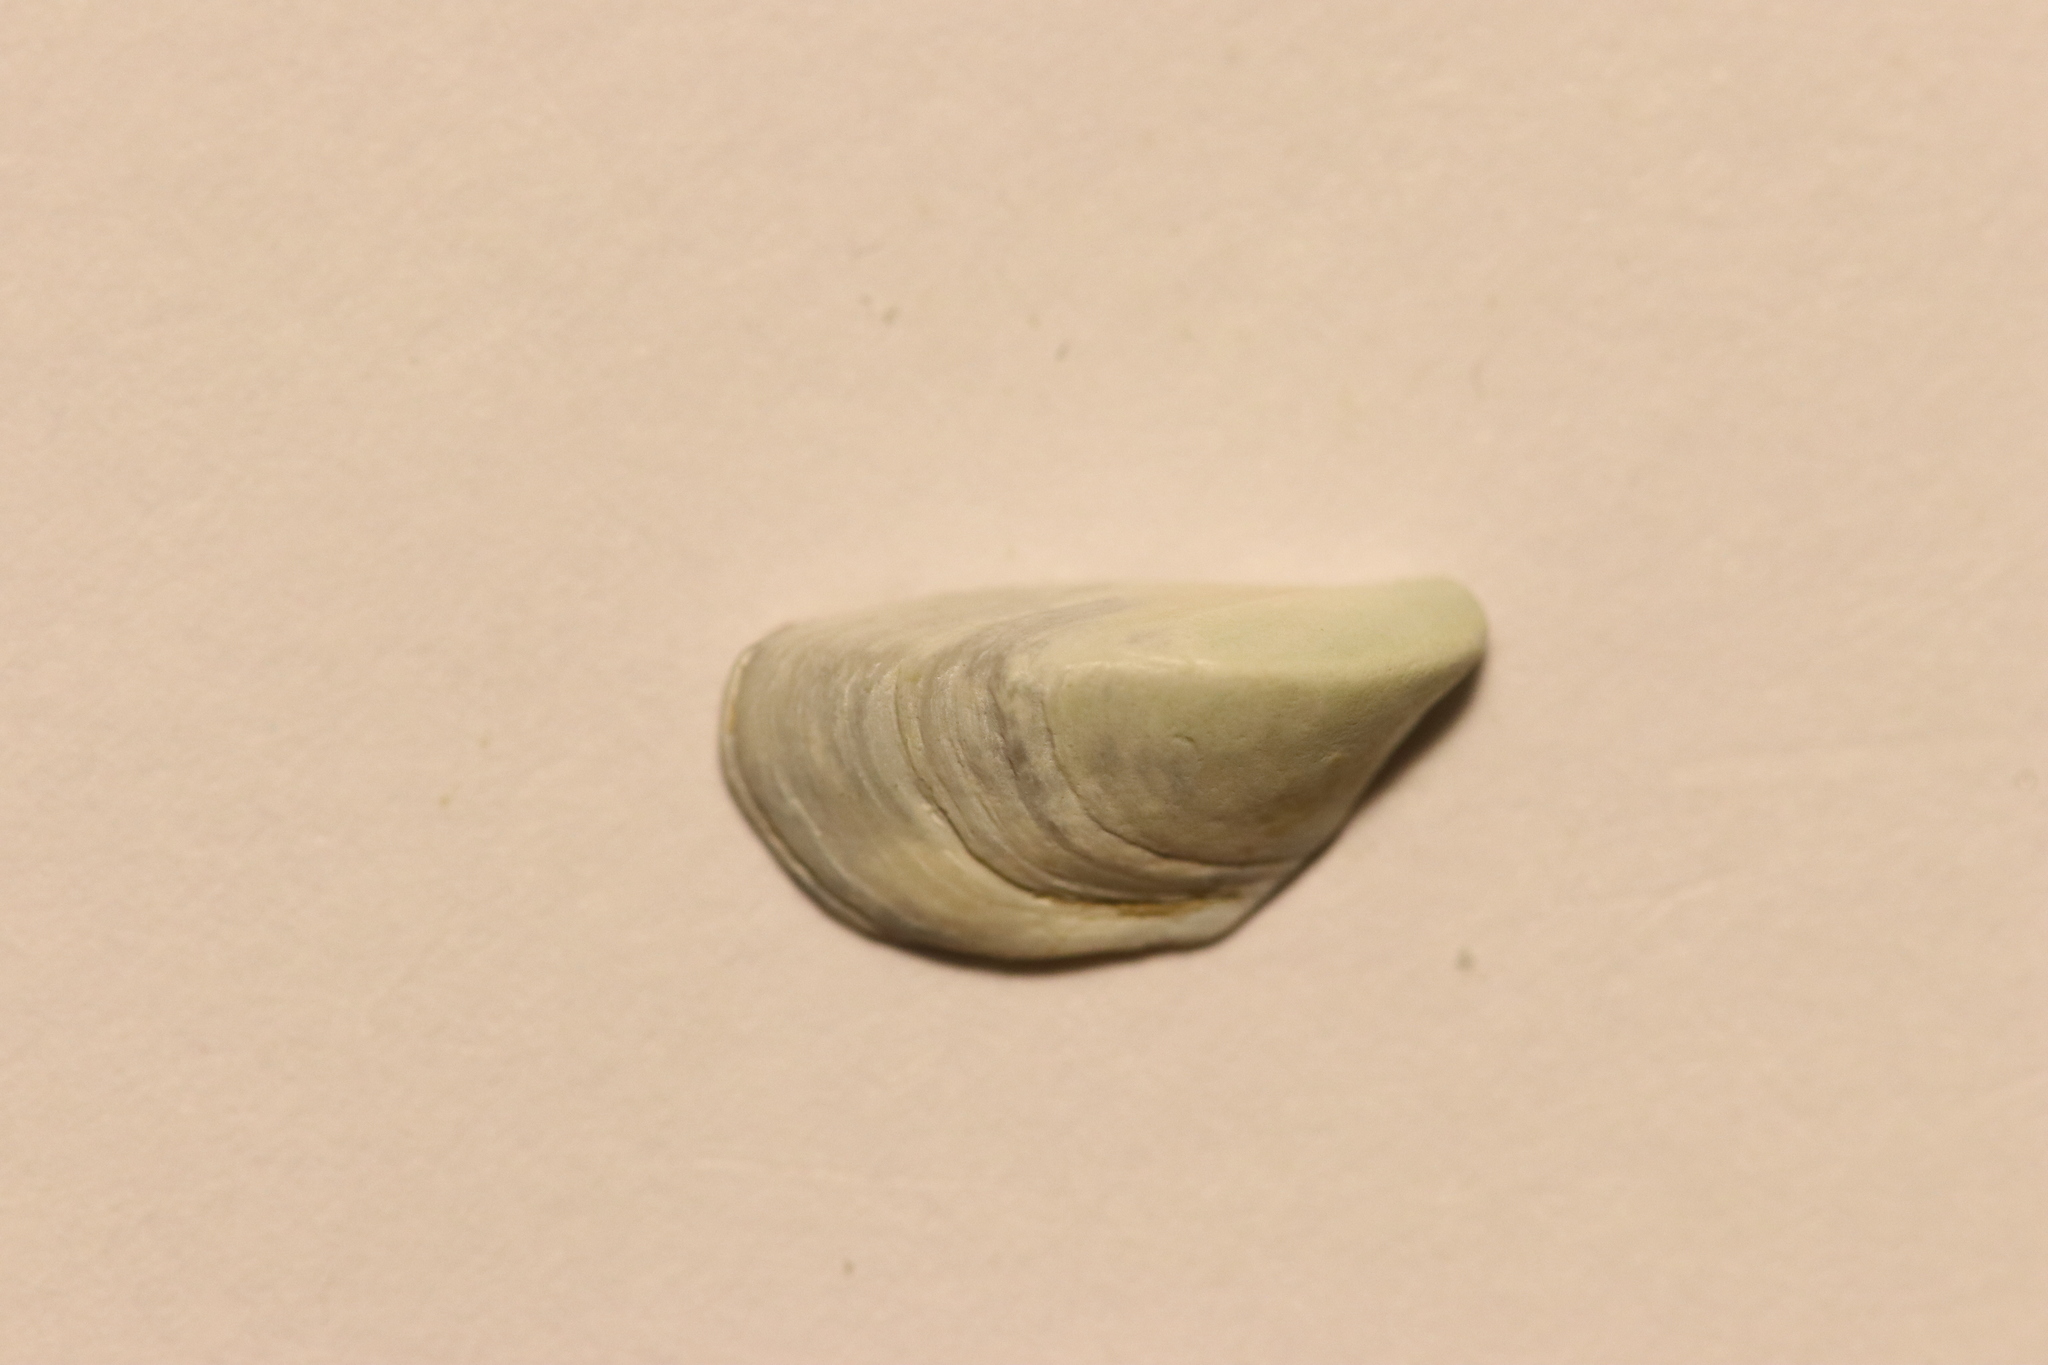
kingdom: Animalia
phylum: Mollusca
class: Bivalvia
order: Myida
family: Dreissenidae
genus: Dreissena
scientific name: Dreissena polymorpha
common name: Zebra mussel
